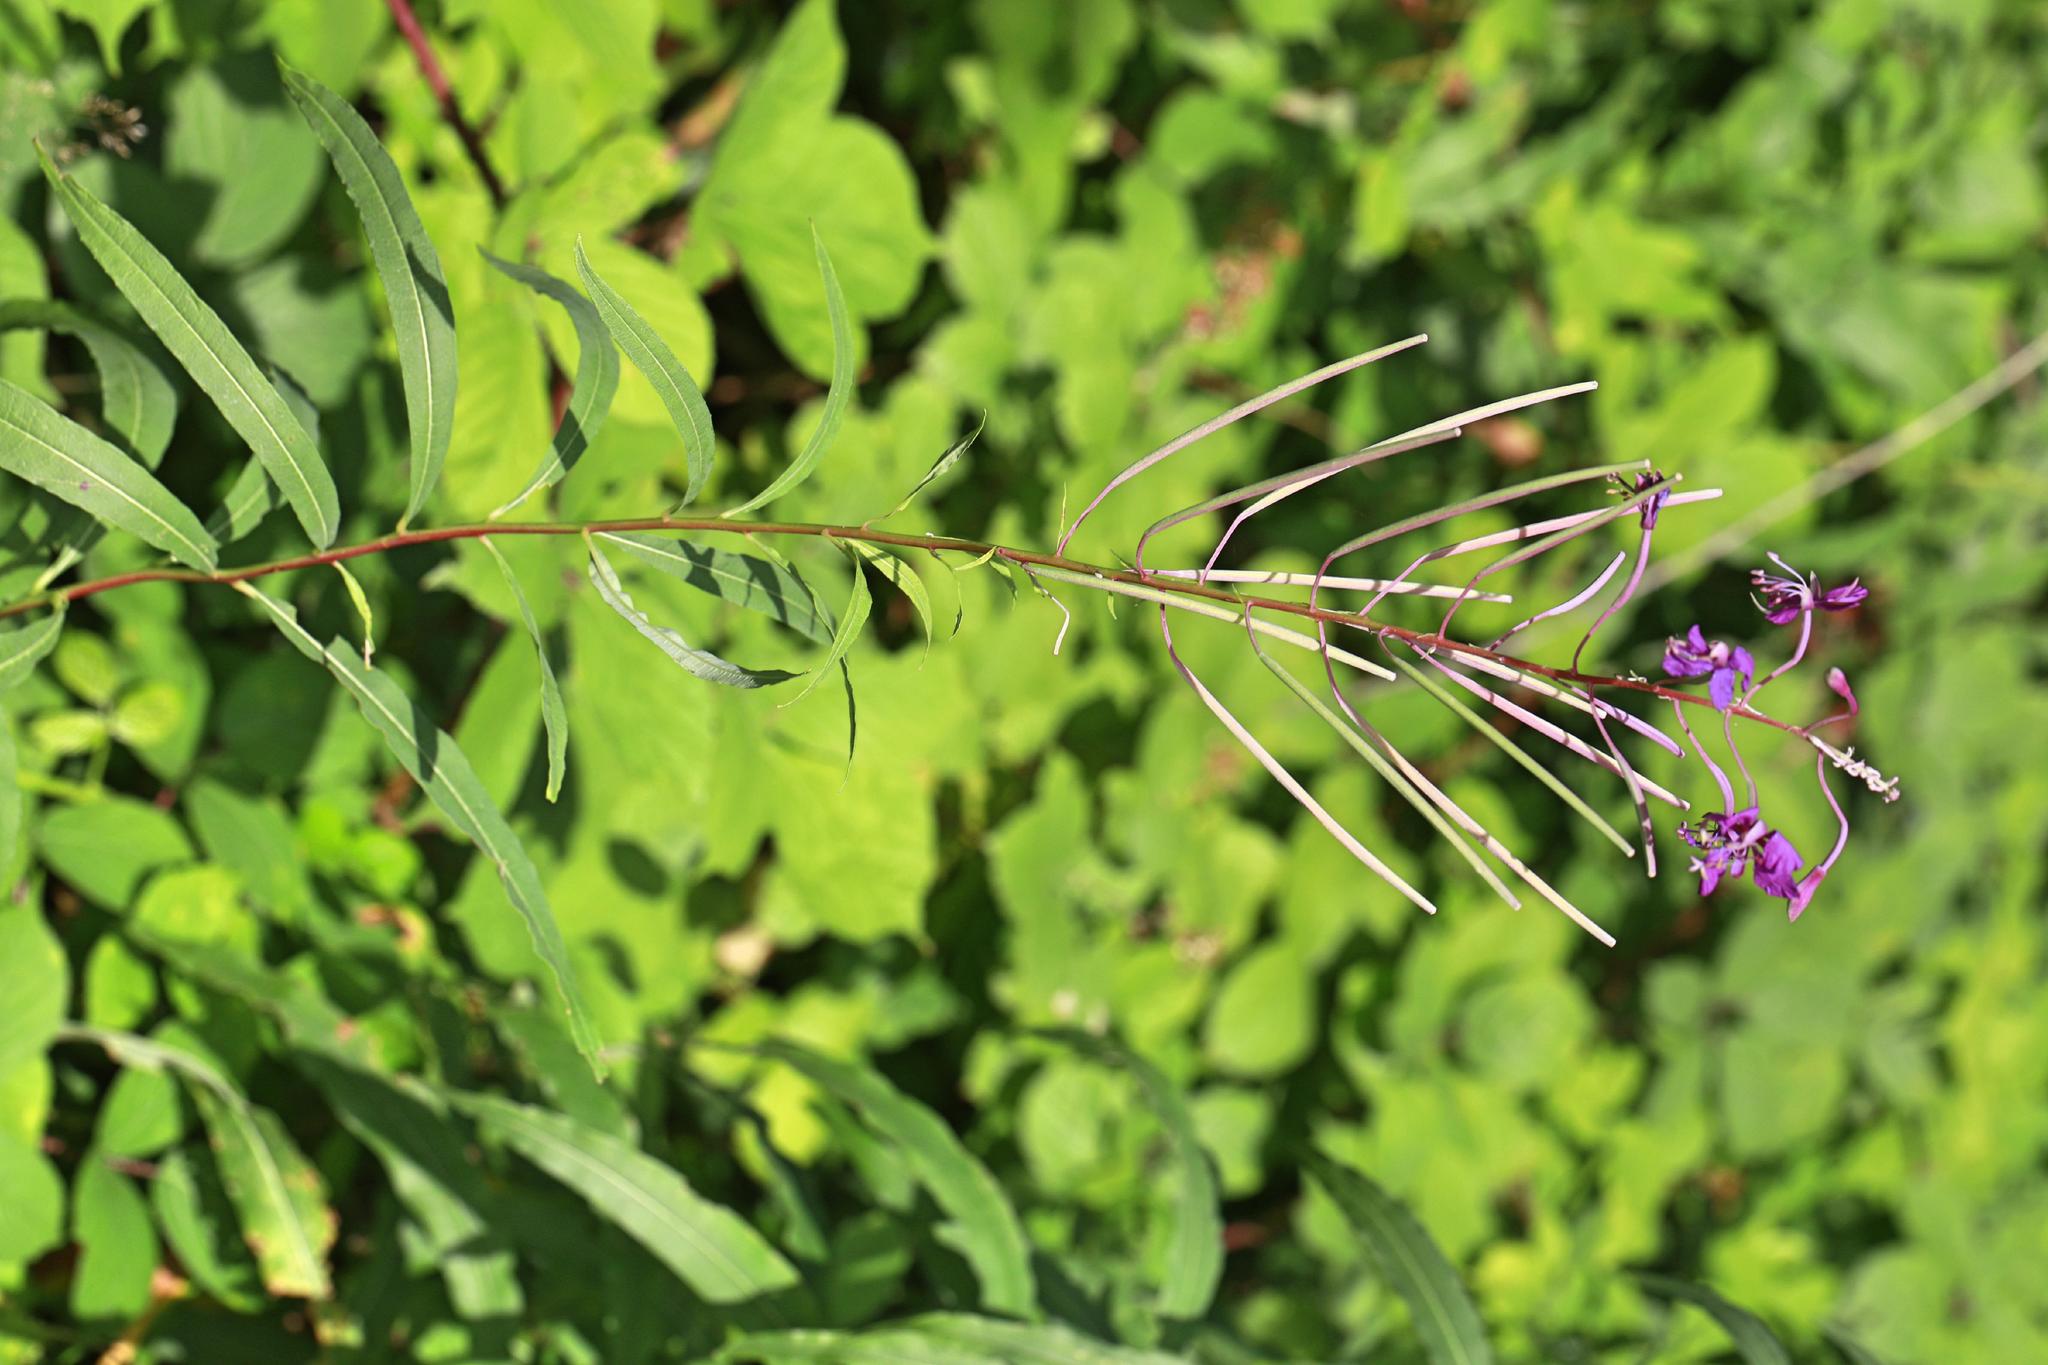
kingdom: Plantae
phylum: Tracheophyta
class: Magnoliopsida
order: Myrtales
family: Onagraceae
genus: Chamaenerion
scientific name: Chamaenerion angustifolium
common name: Fireweed
